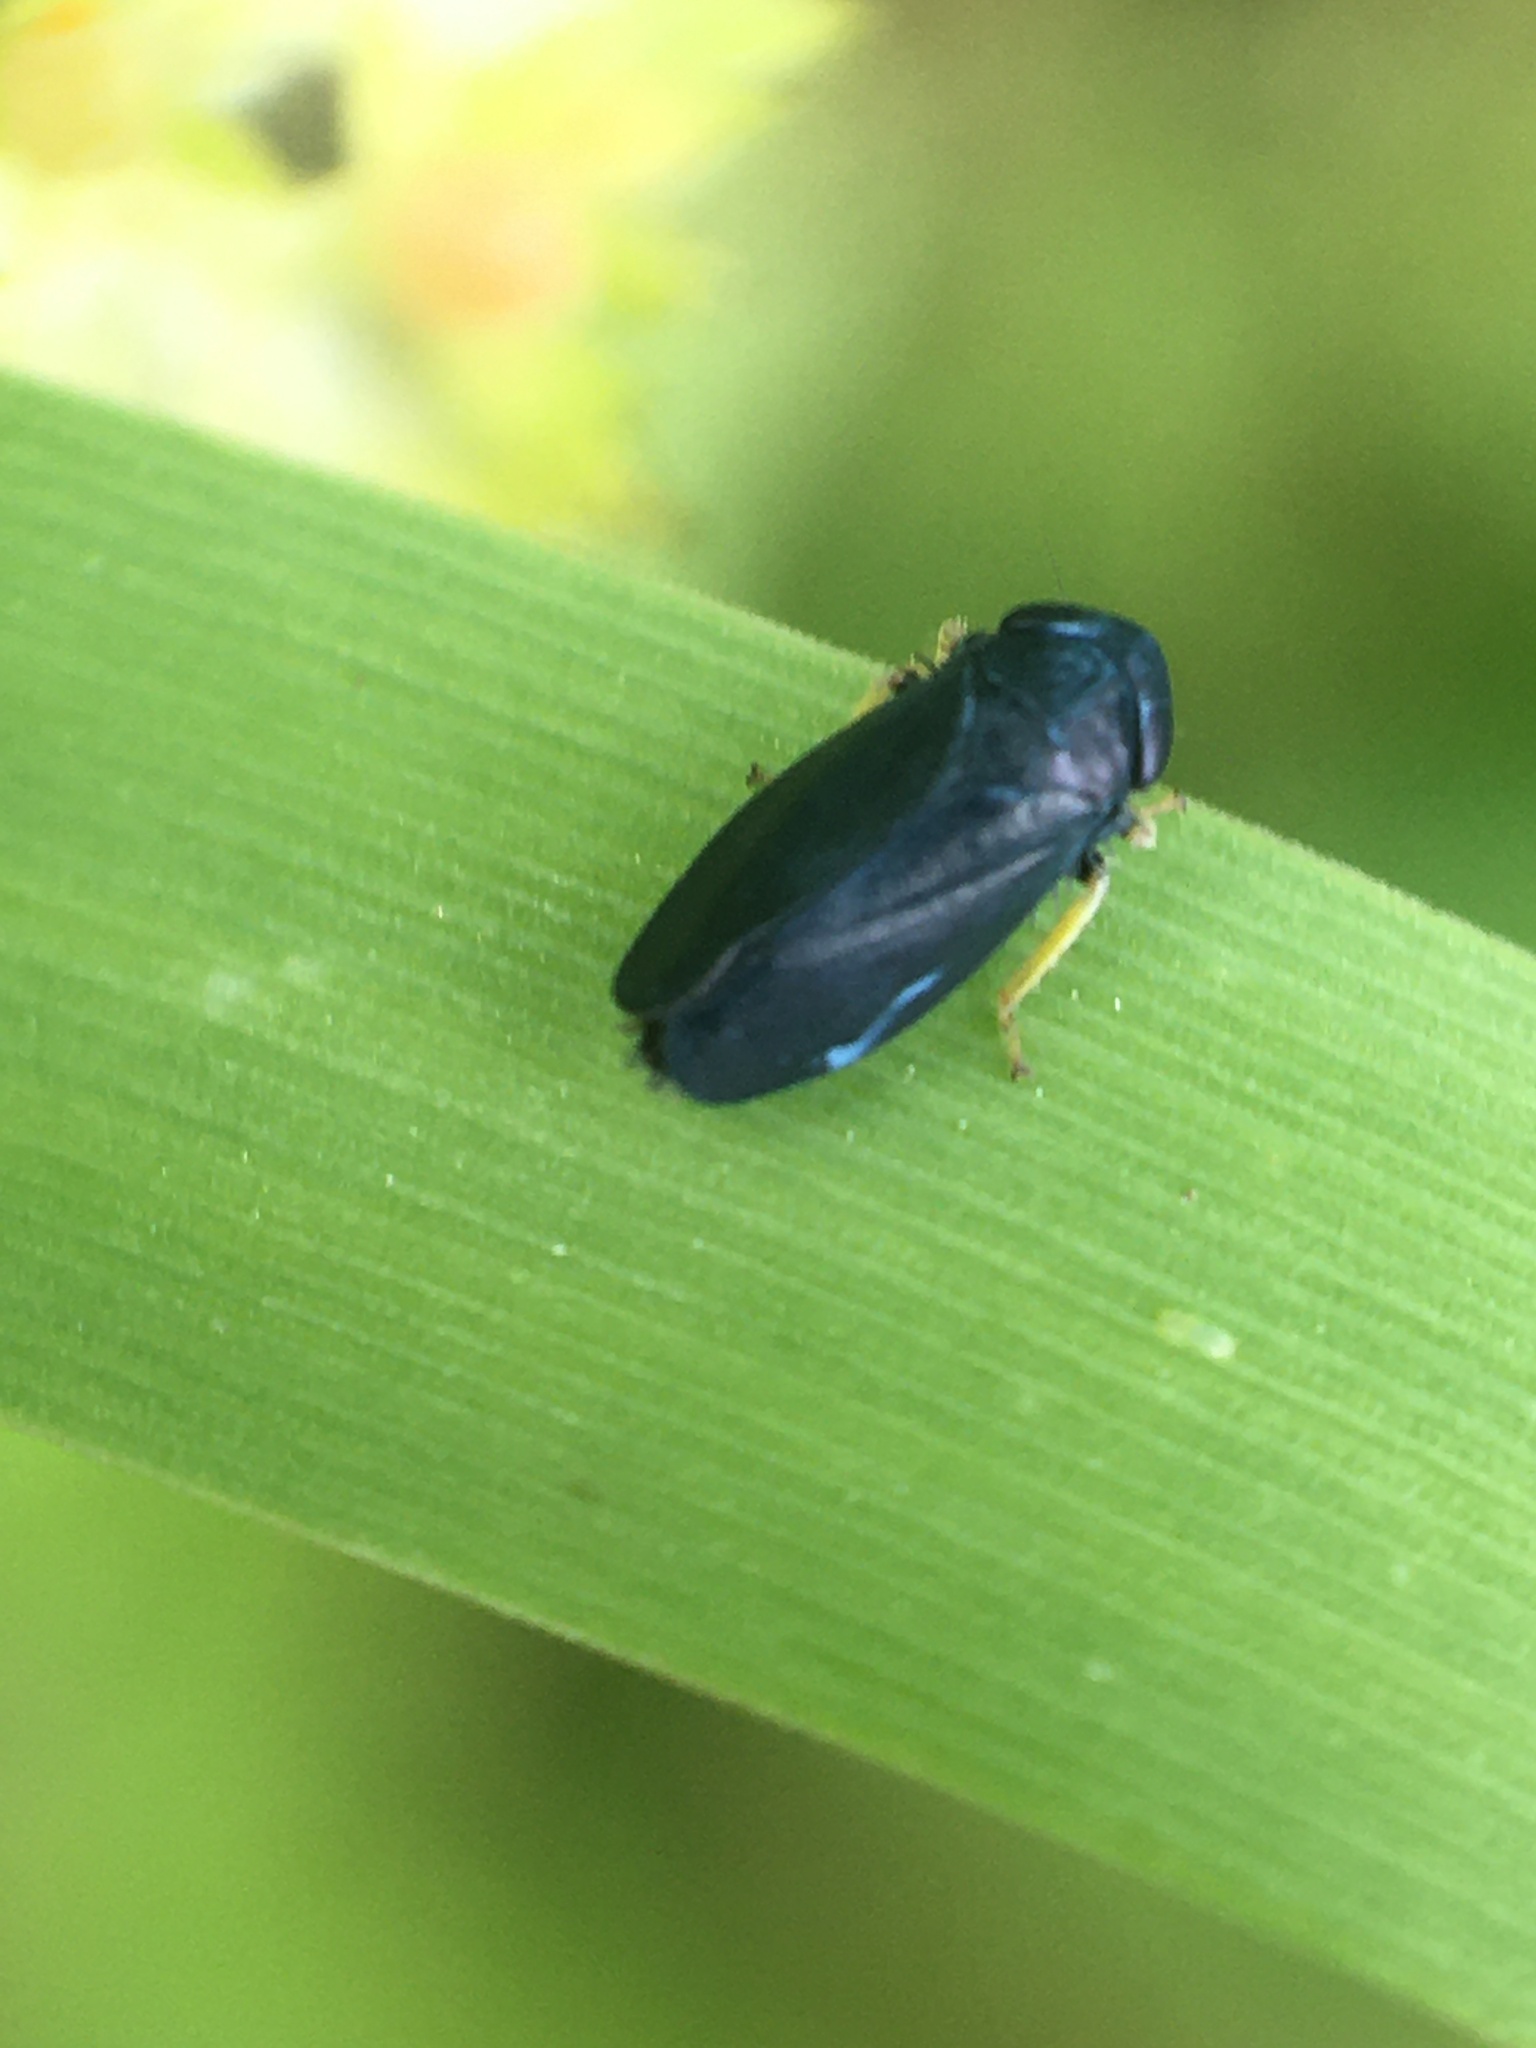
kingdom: Animalia
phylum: Arthropoda
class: Insecta
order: Hemiptera
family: Cicadellidae
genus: Scleroracus
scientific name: Scleroracus anthracinus
